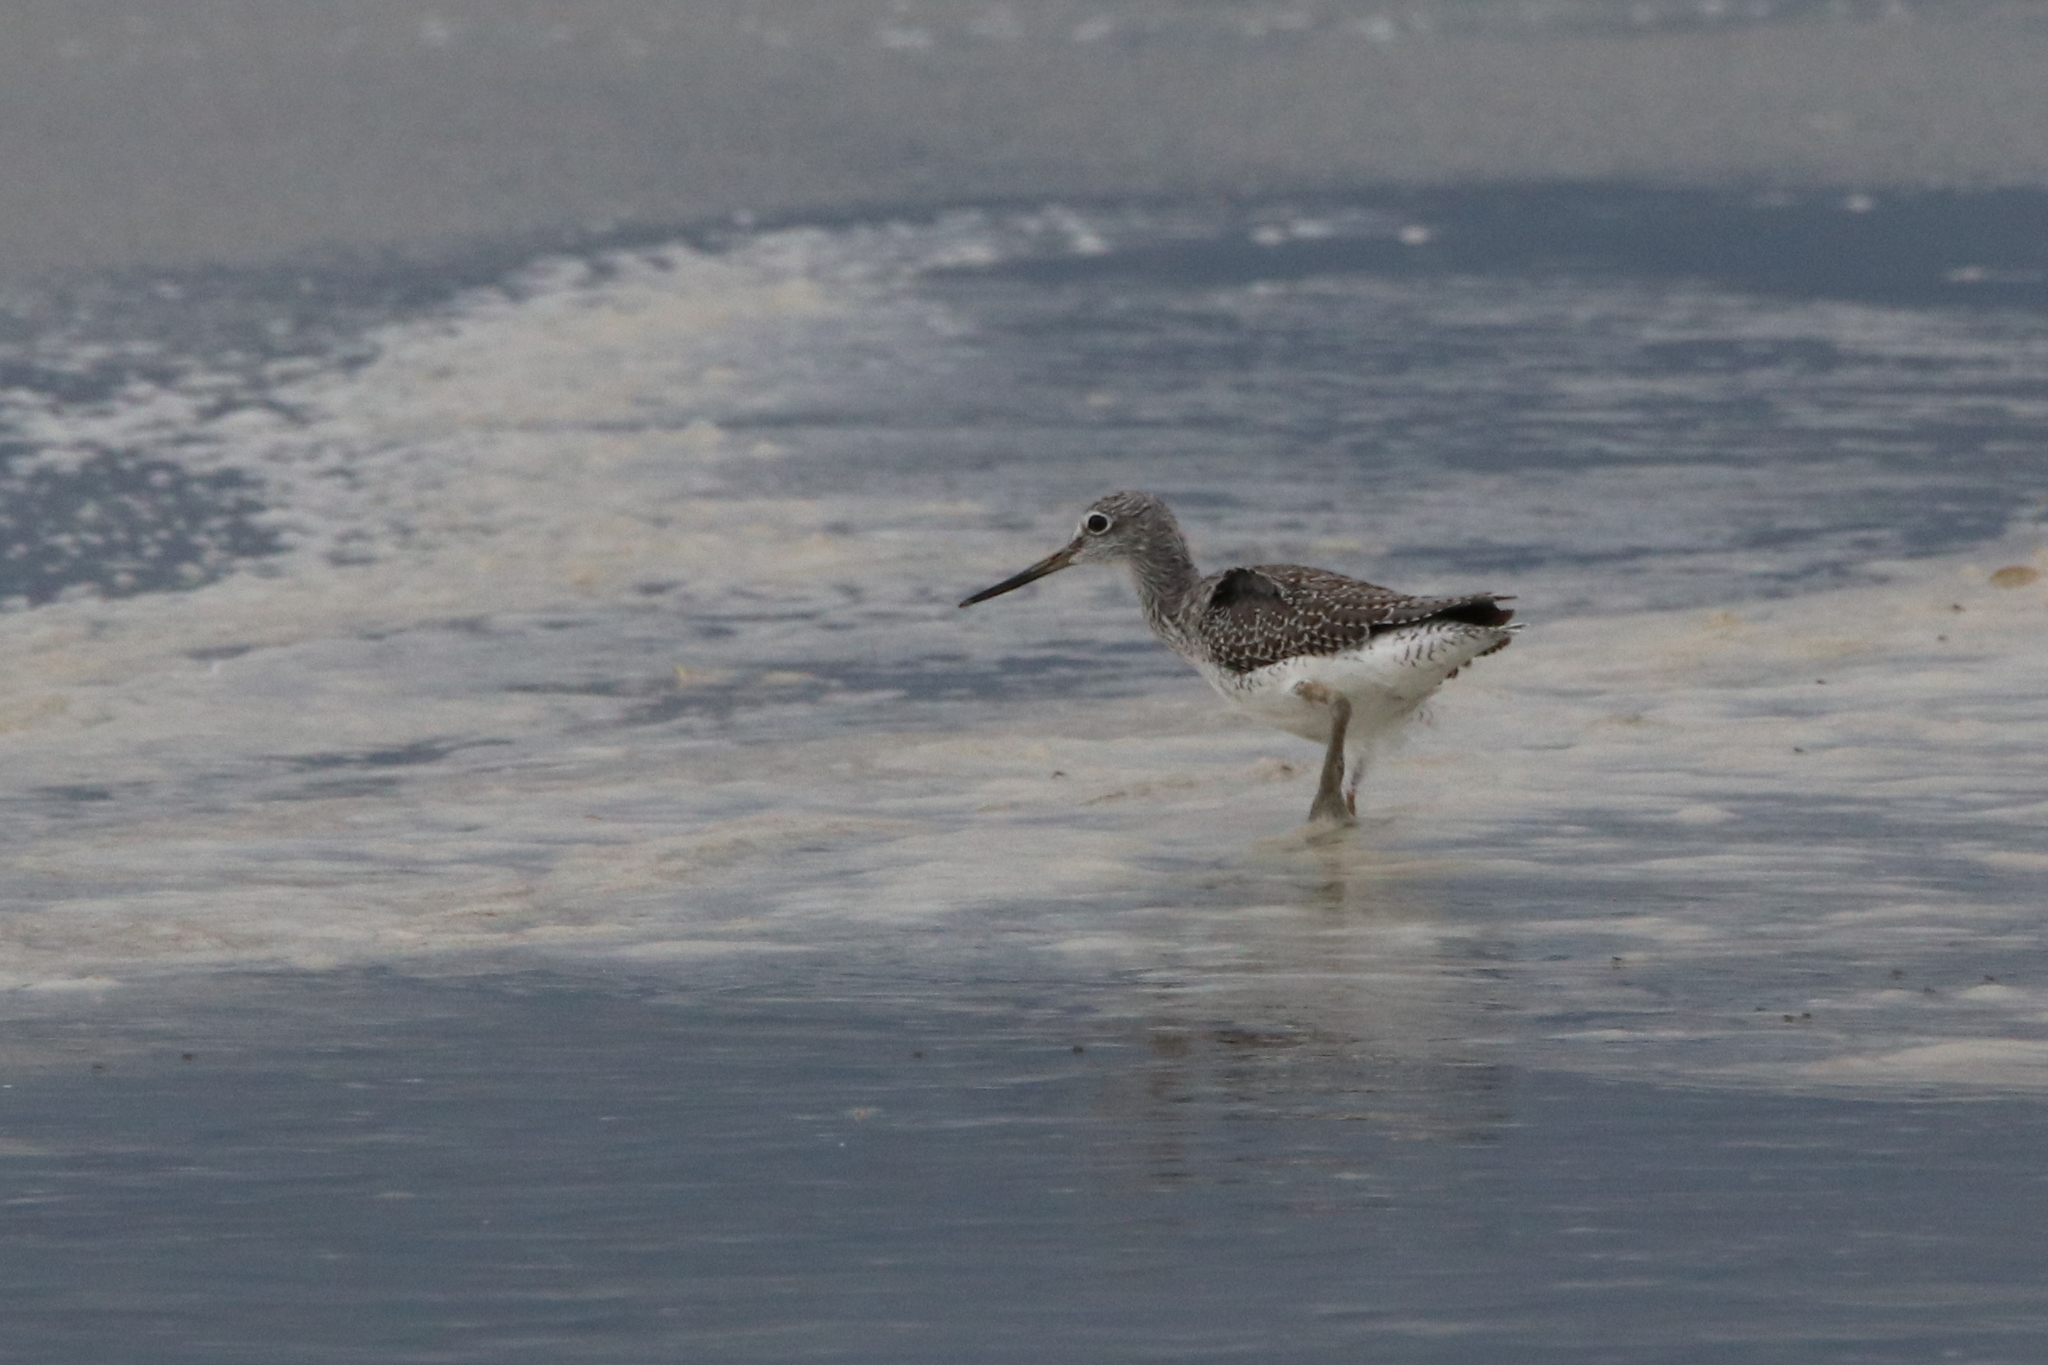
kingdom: Animalia
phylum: Chordata
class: Aves
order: Charadriiformes
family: Scolopacidae
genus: Tringa
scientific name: Tringa melanoleuca
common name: Greater yellowlegs
